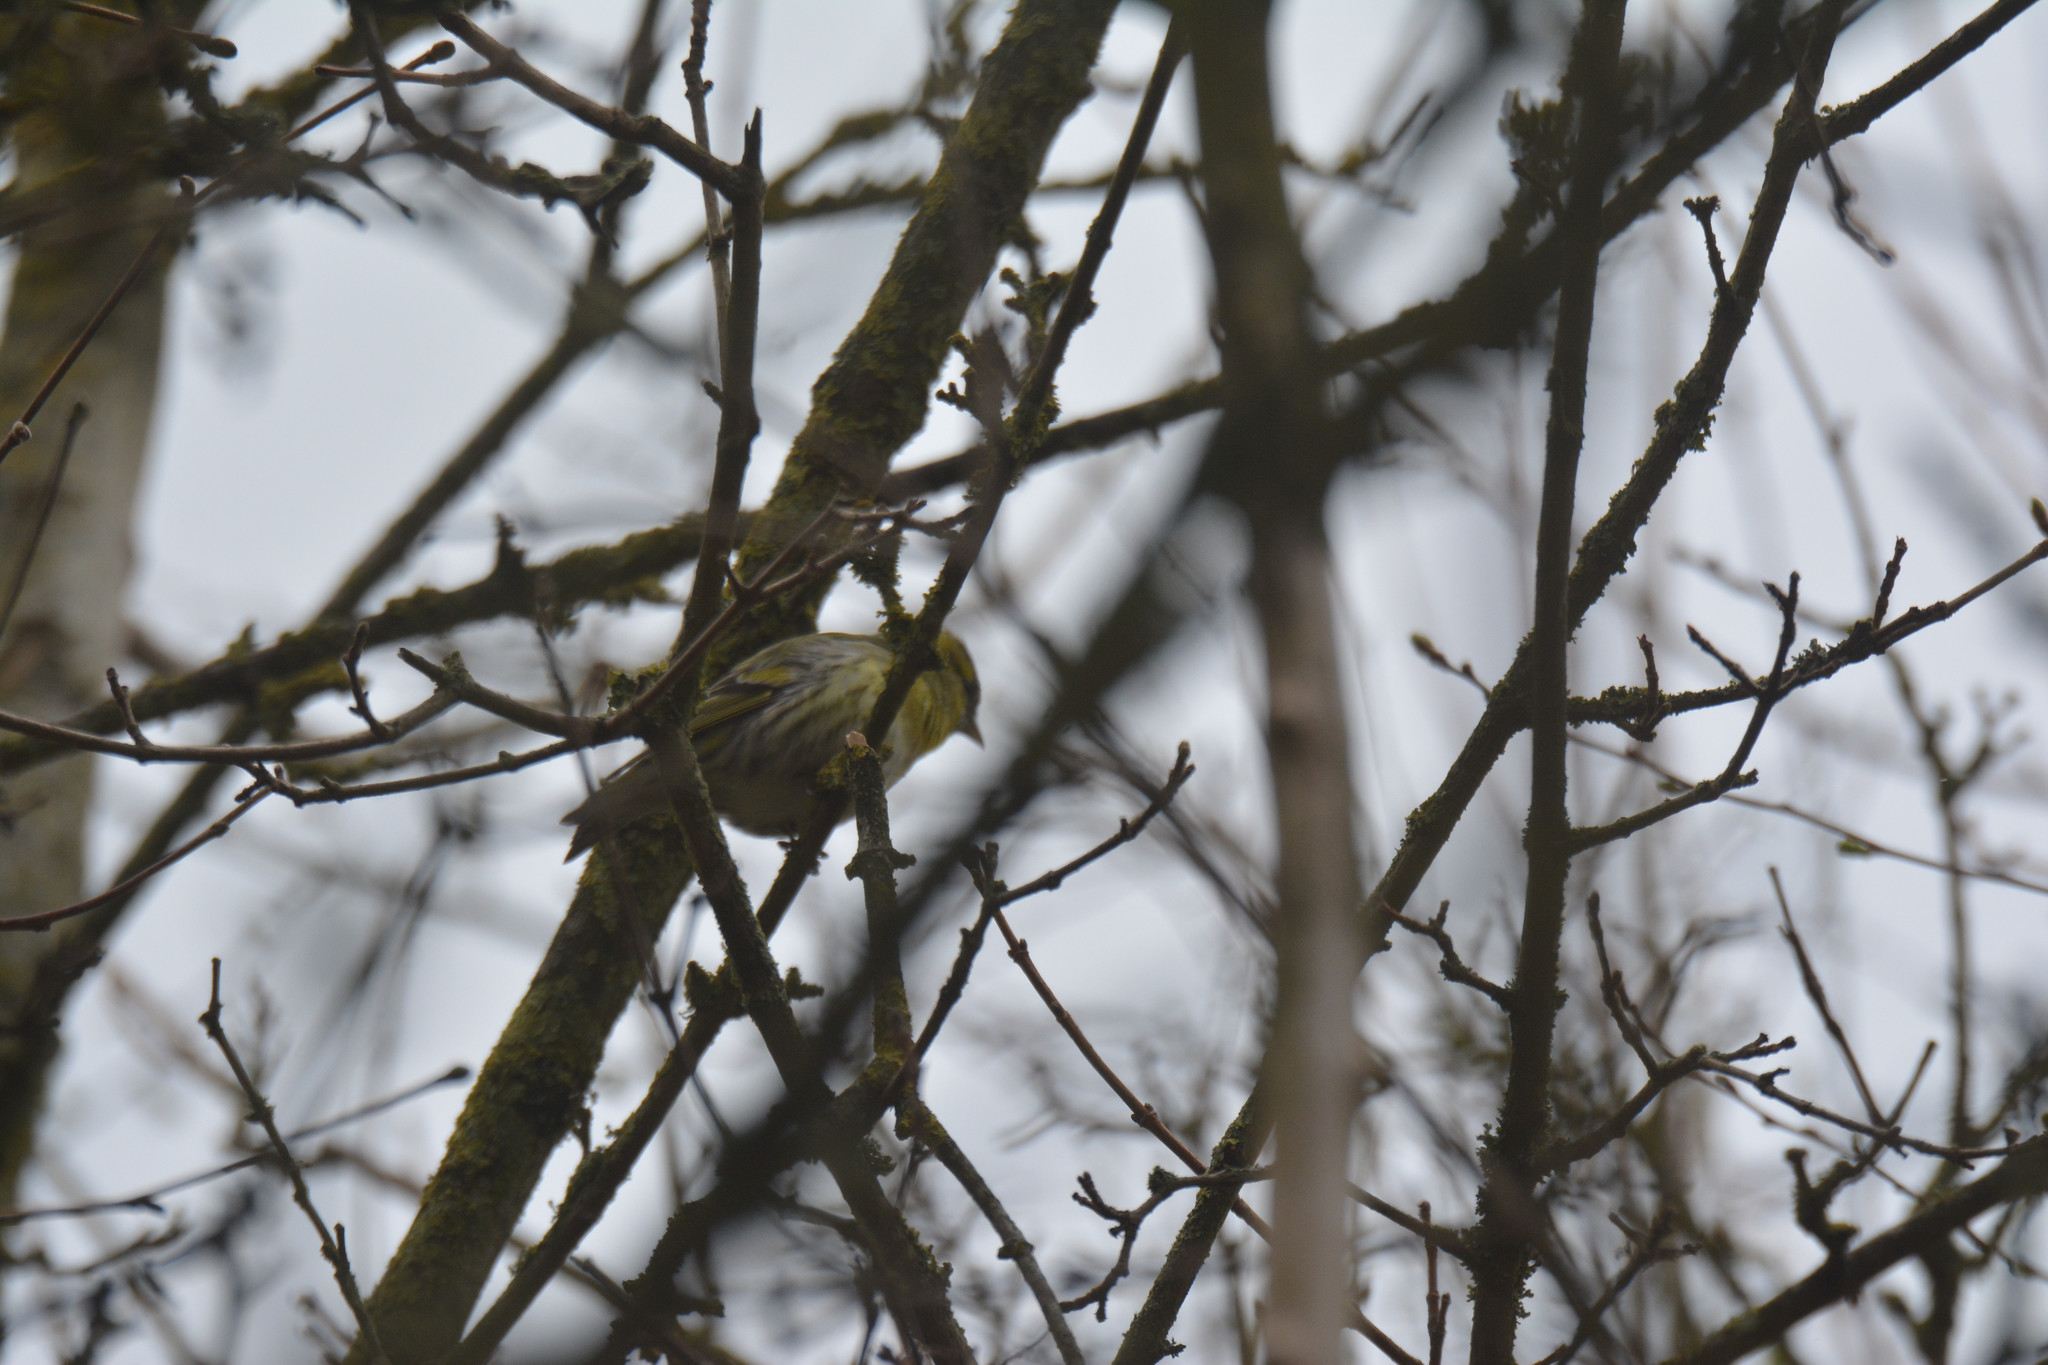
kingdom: Animalia
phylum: Chordata
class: Aves
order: Passeriformes
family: Fringillidae
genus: Spinus
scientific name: Spinus spinus
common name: Eurasian siskin
